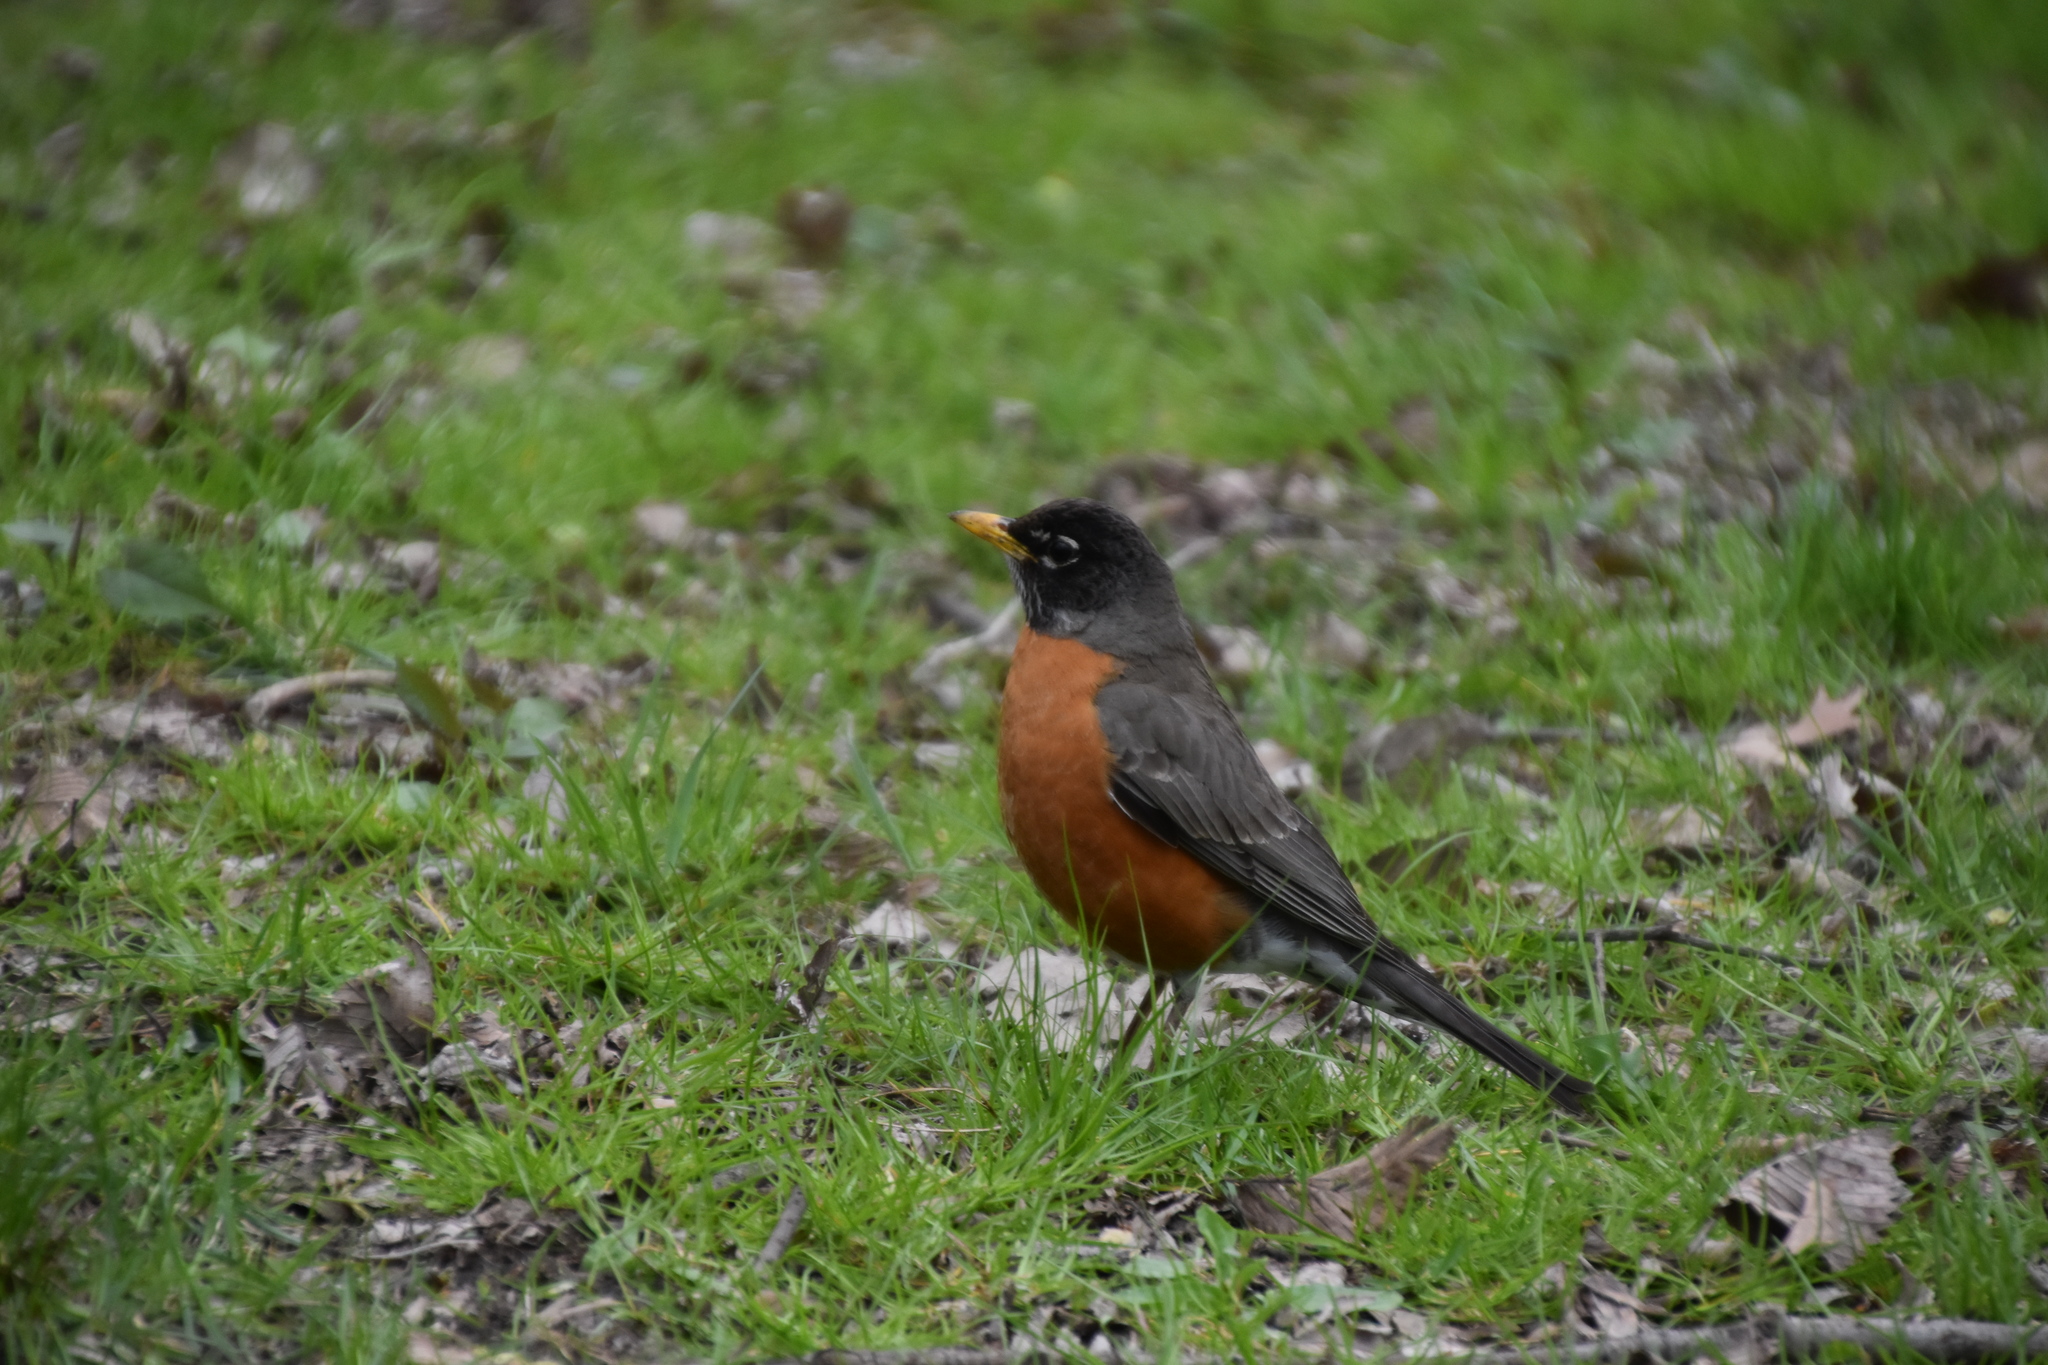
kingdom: Animalia
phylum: Chordata
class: Aves
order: Passeriformes
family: Turdidae
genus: Turdus
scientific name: Turdus migratorius
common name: American robin
